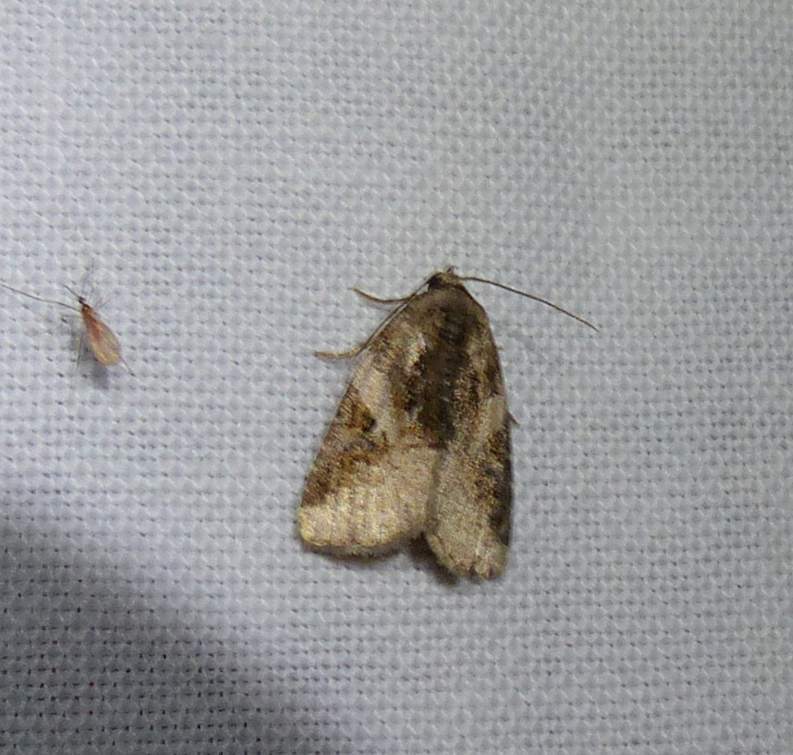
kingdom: Animalia
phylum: Arthropoda
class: Insecta
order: Lepidoptera
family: Noctuidae
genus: Pseudeustrotia
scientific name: Pseudeustrotia carneola
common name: Pink-barred lithacodia moth
